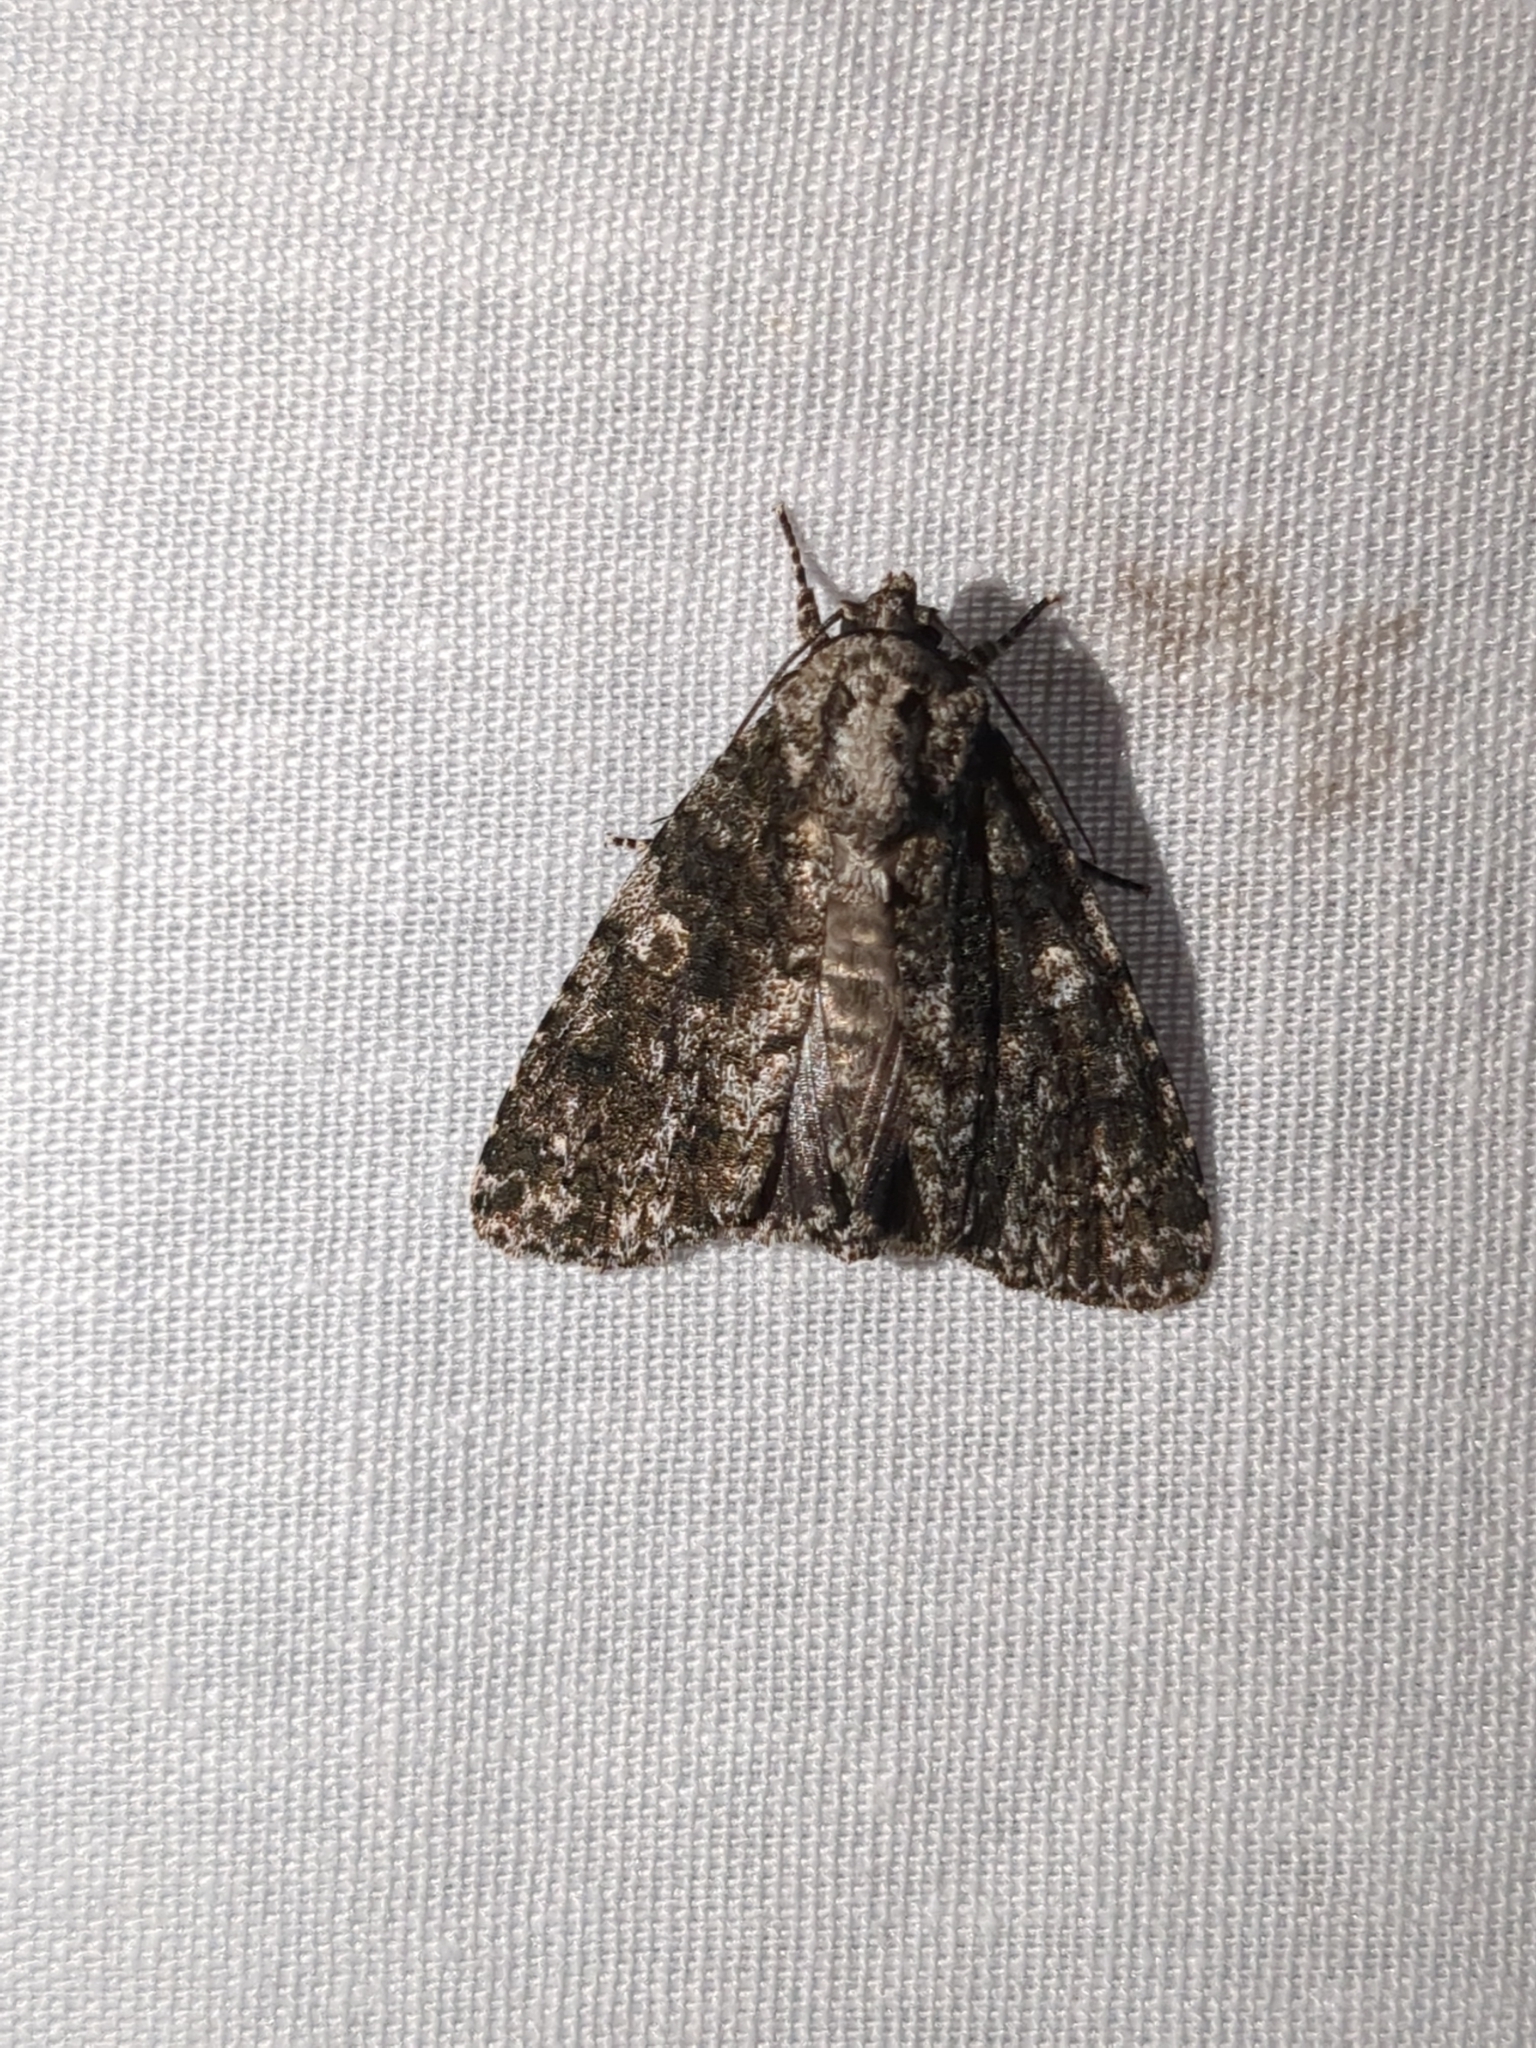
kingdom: Animalia
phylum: Arthropoda
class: Insecta
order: Lepidoptera
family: Noctuidae
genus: Acronicta
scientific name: Acronicta afflicta
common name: Afflicted dagger moth
